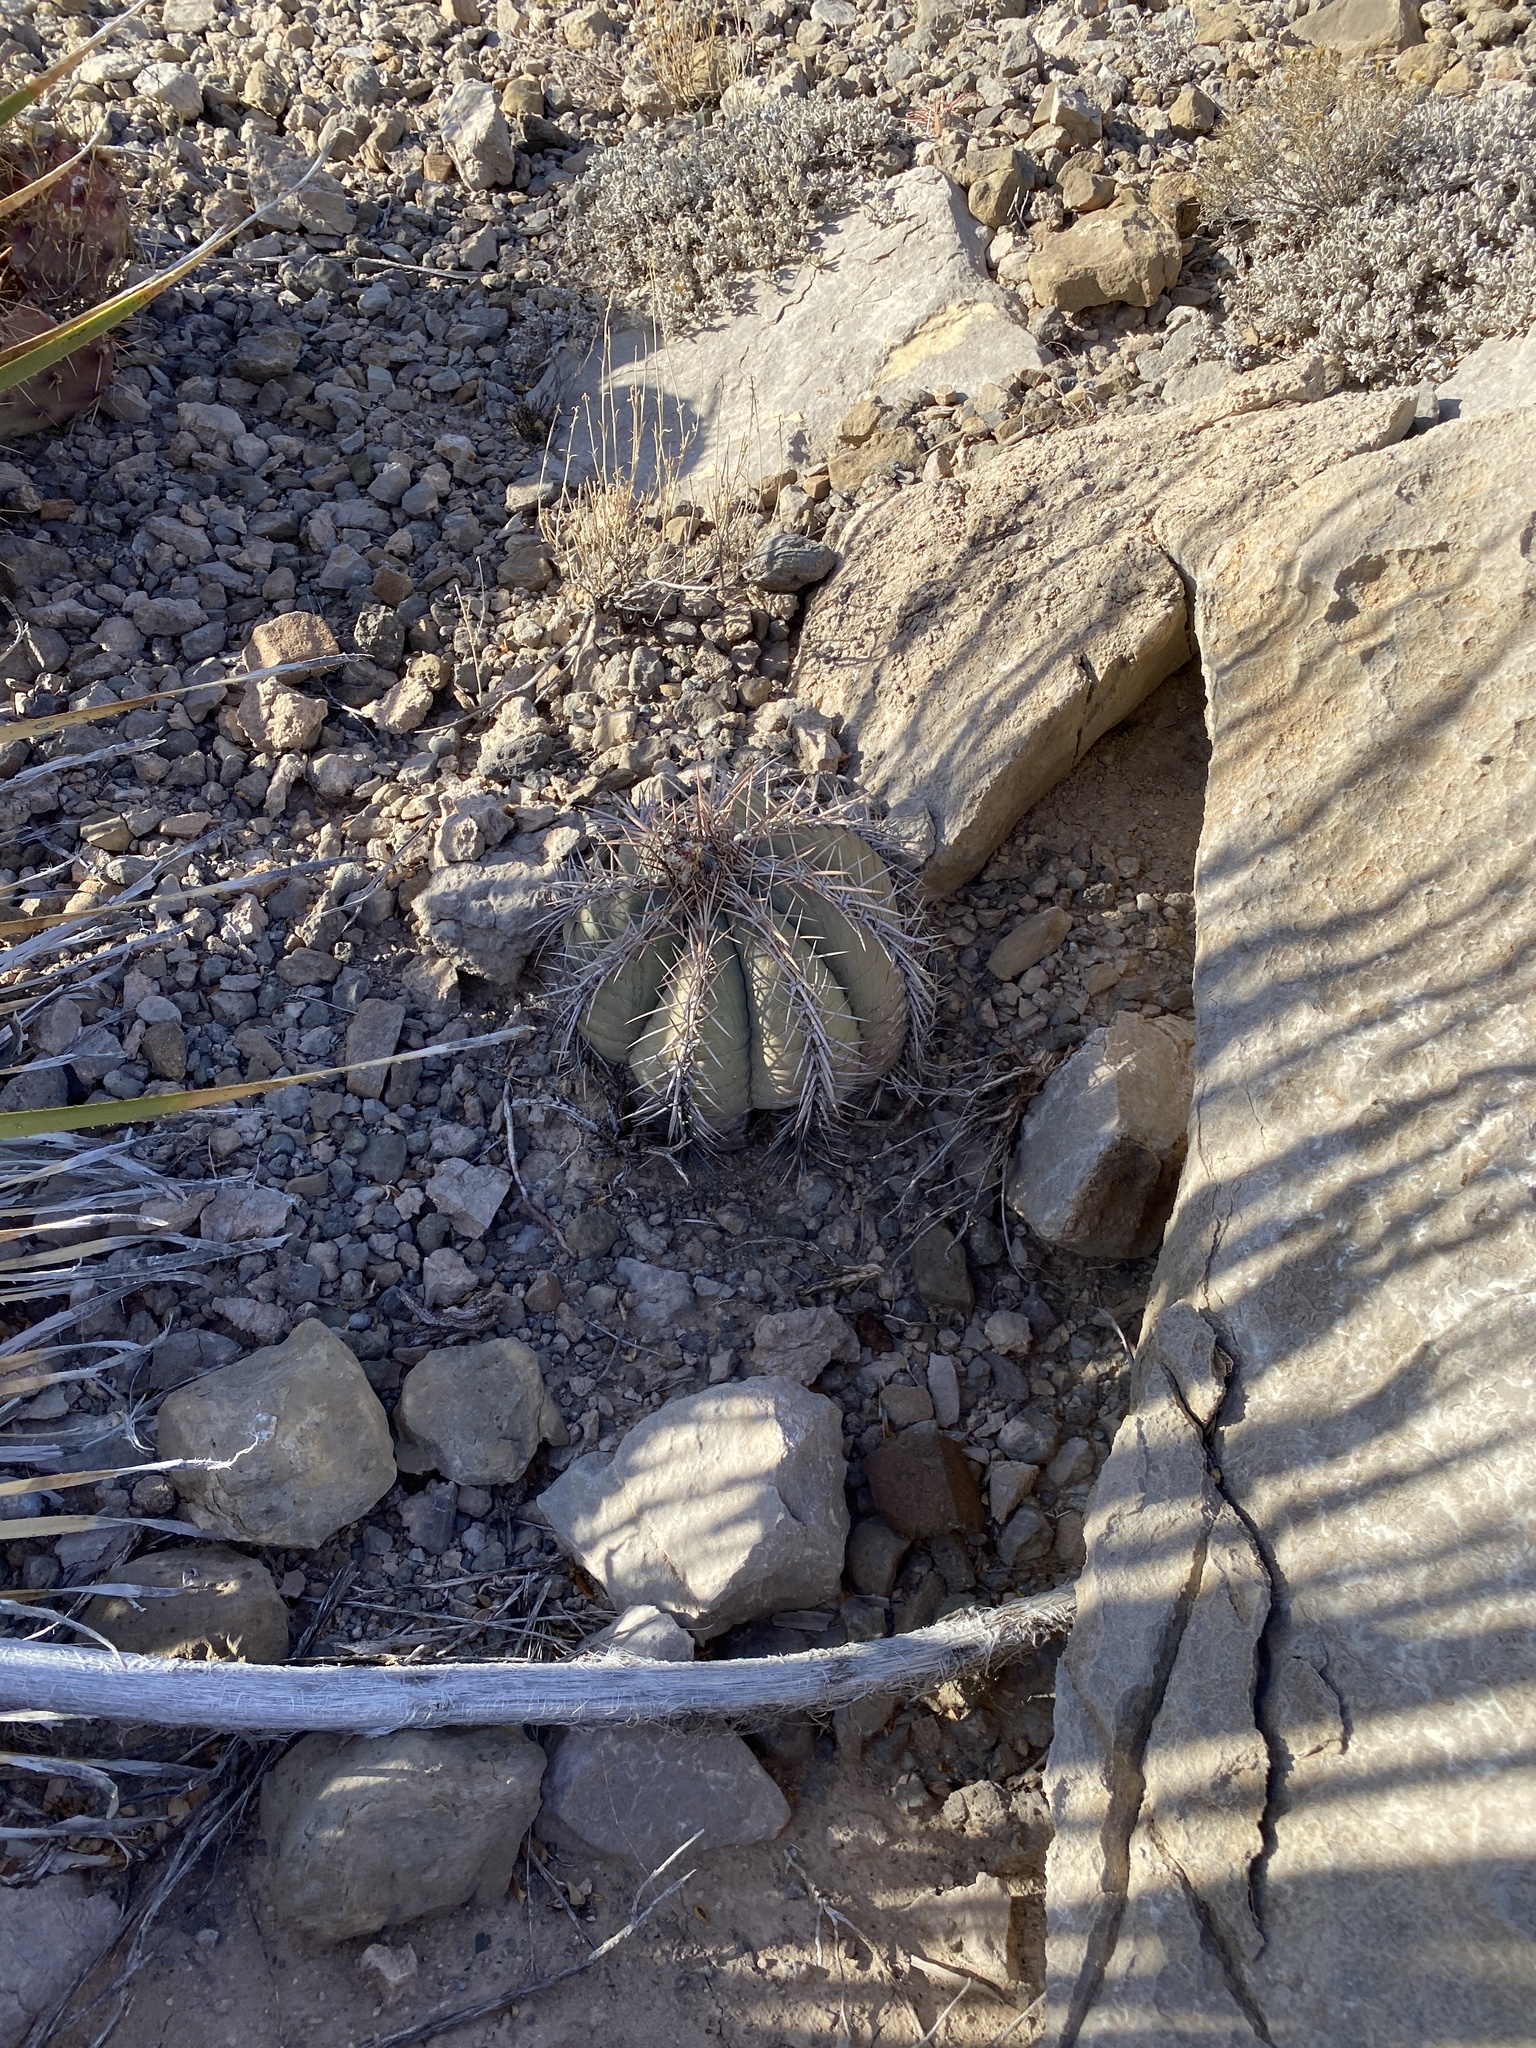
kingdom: Plantae
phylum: Tracheophyta
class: Magnoliopsida
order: Caryophyllales
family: Cactaceae
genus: Echinocactus
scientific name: Echinocactus horizonthalonius
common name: Devilshead
